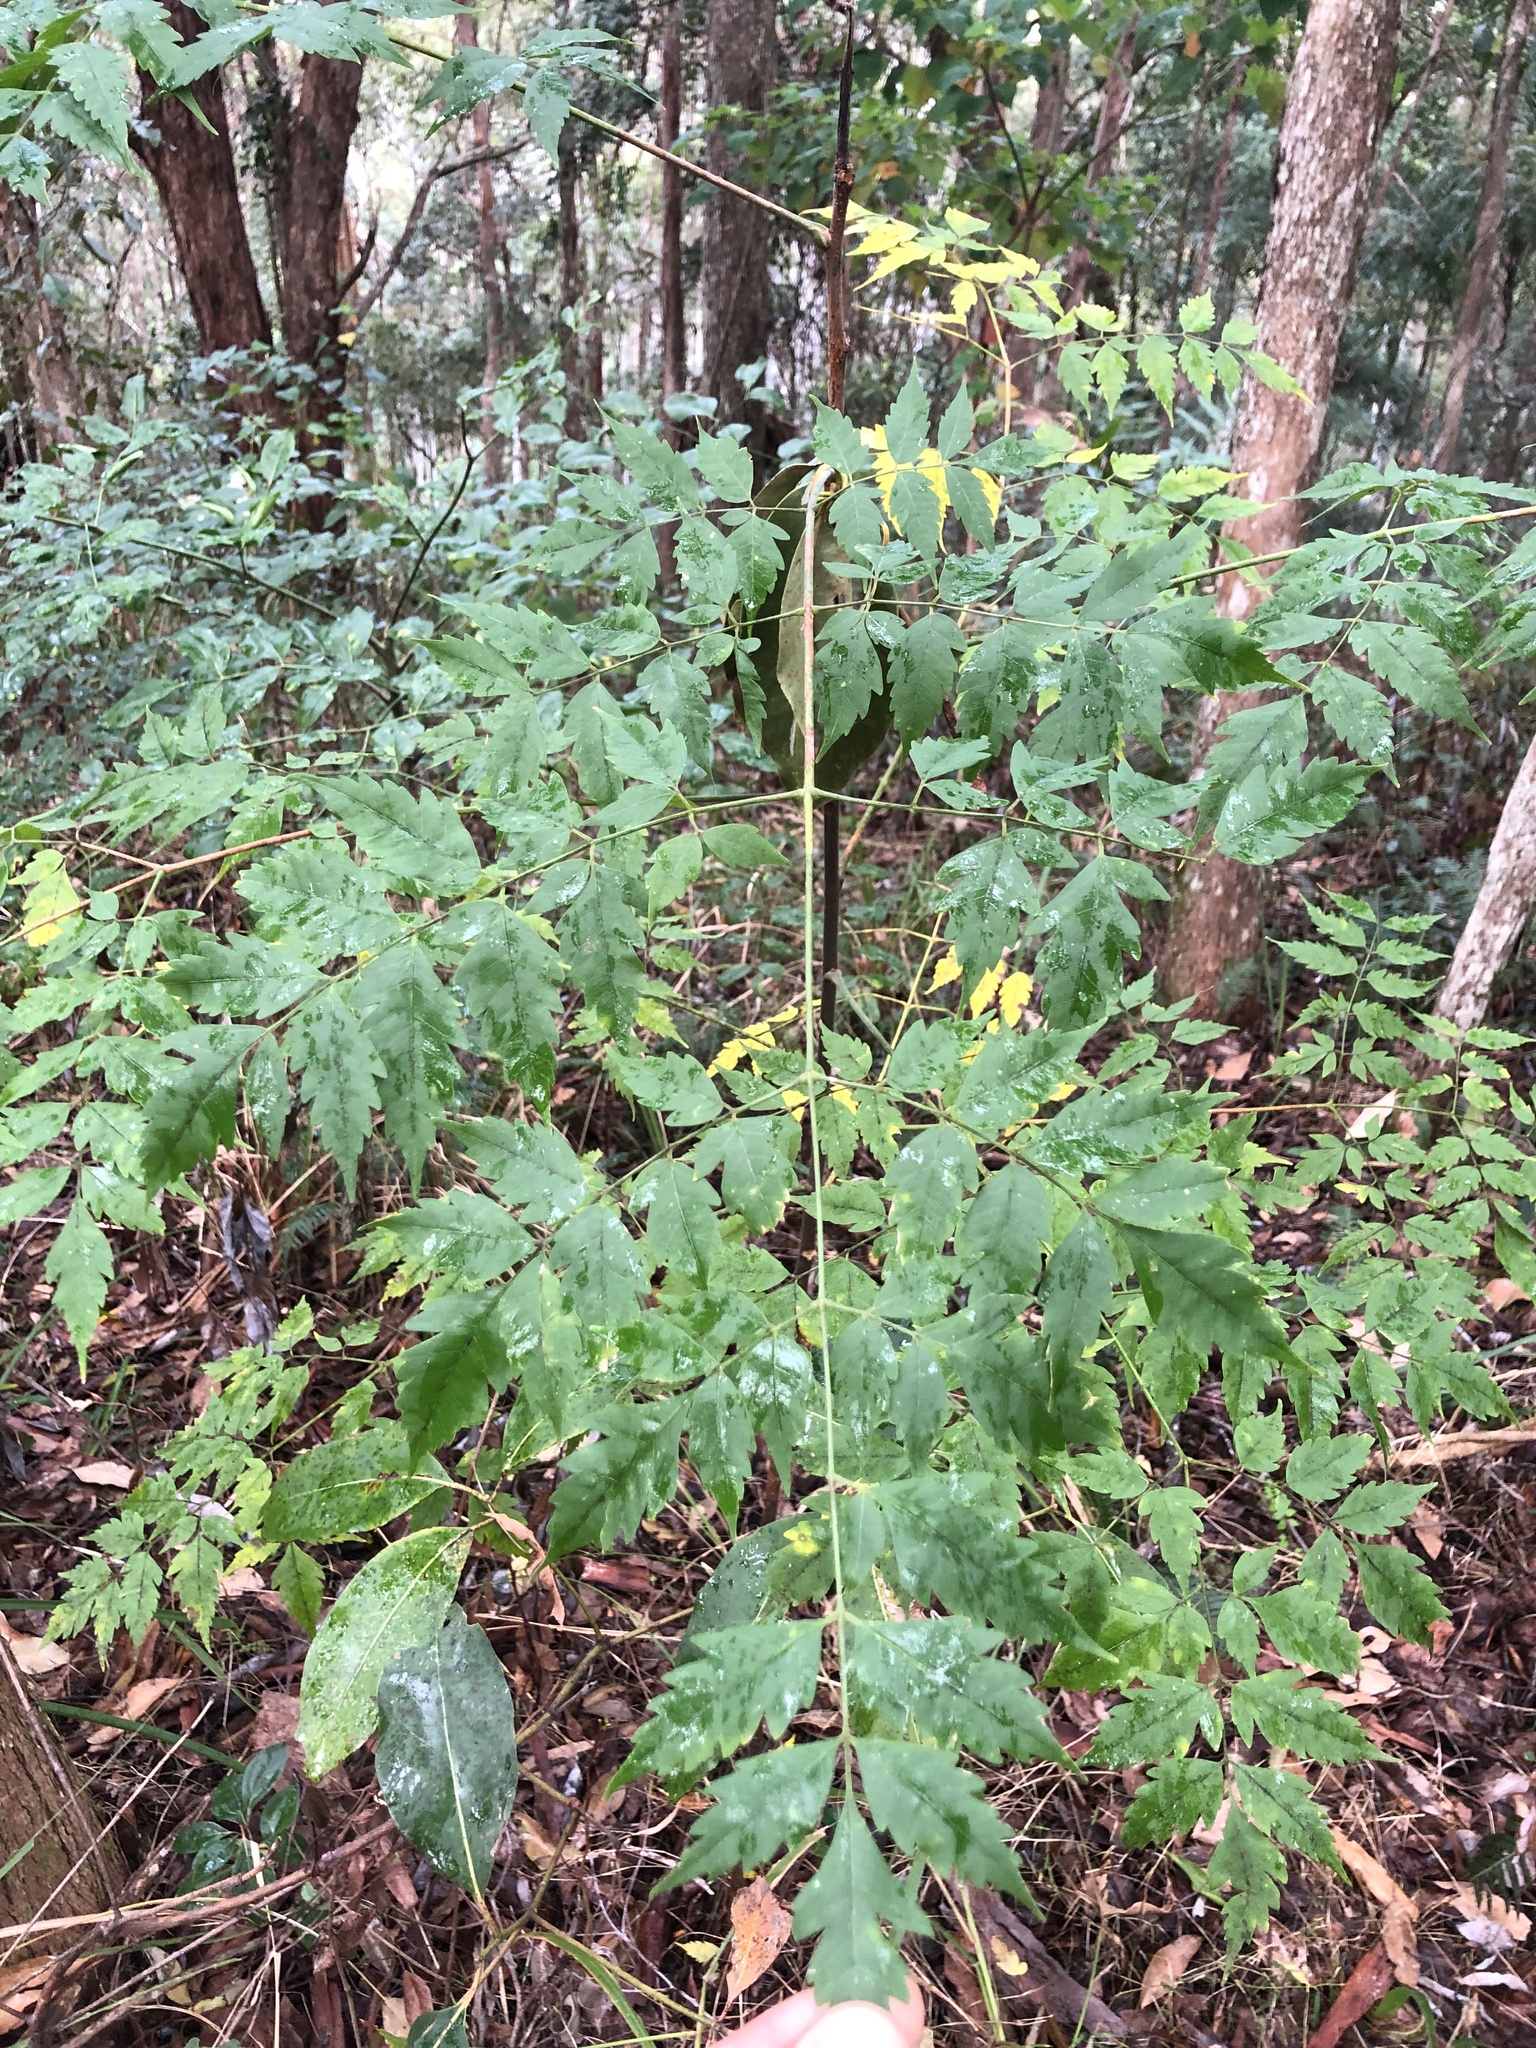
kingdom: Plantae
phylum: Tracheophyta
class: Magnoliopsida
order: Sapindales
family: Meliaceae
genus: Melia
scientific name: Melia azedarach
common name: Chinaberrytree
